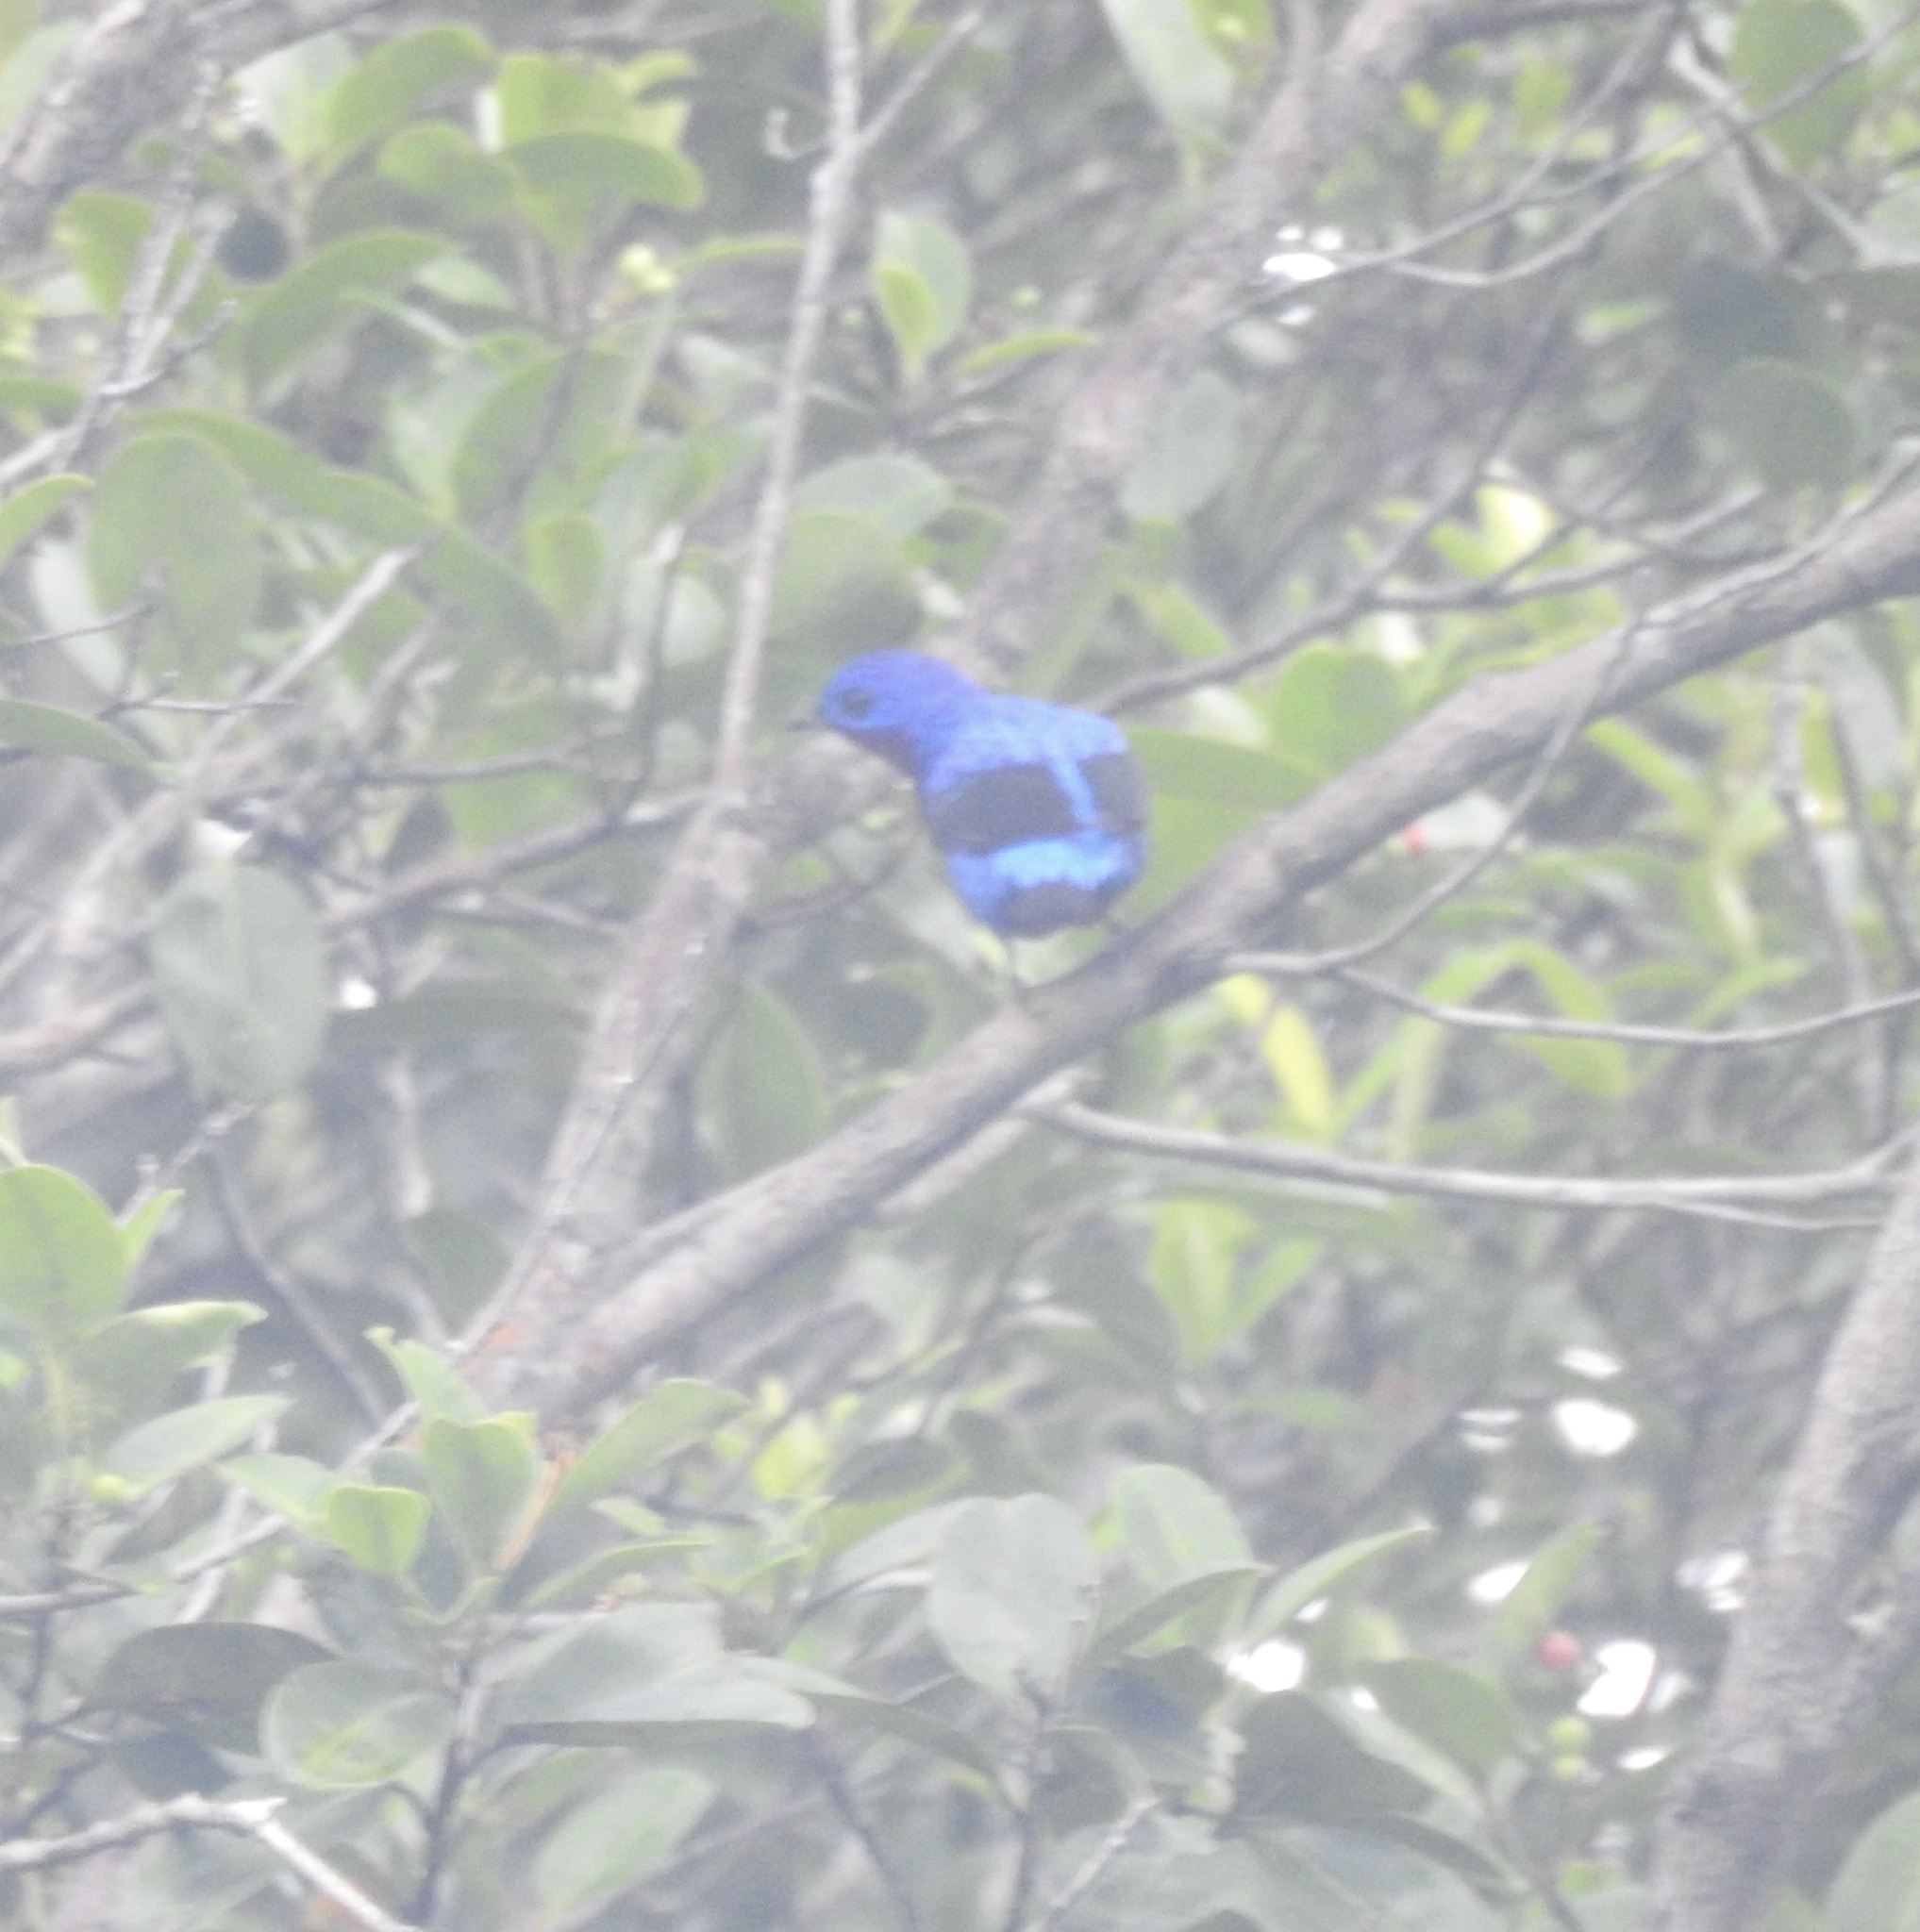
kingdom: Animalia
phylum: Chordata
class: Aves
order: Passeriformes
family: Cotingidae
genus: Cotinga
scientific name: Cotinga cotinga
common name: Purple-breasted cotinga
